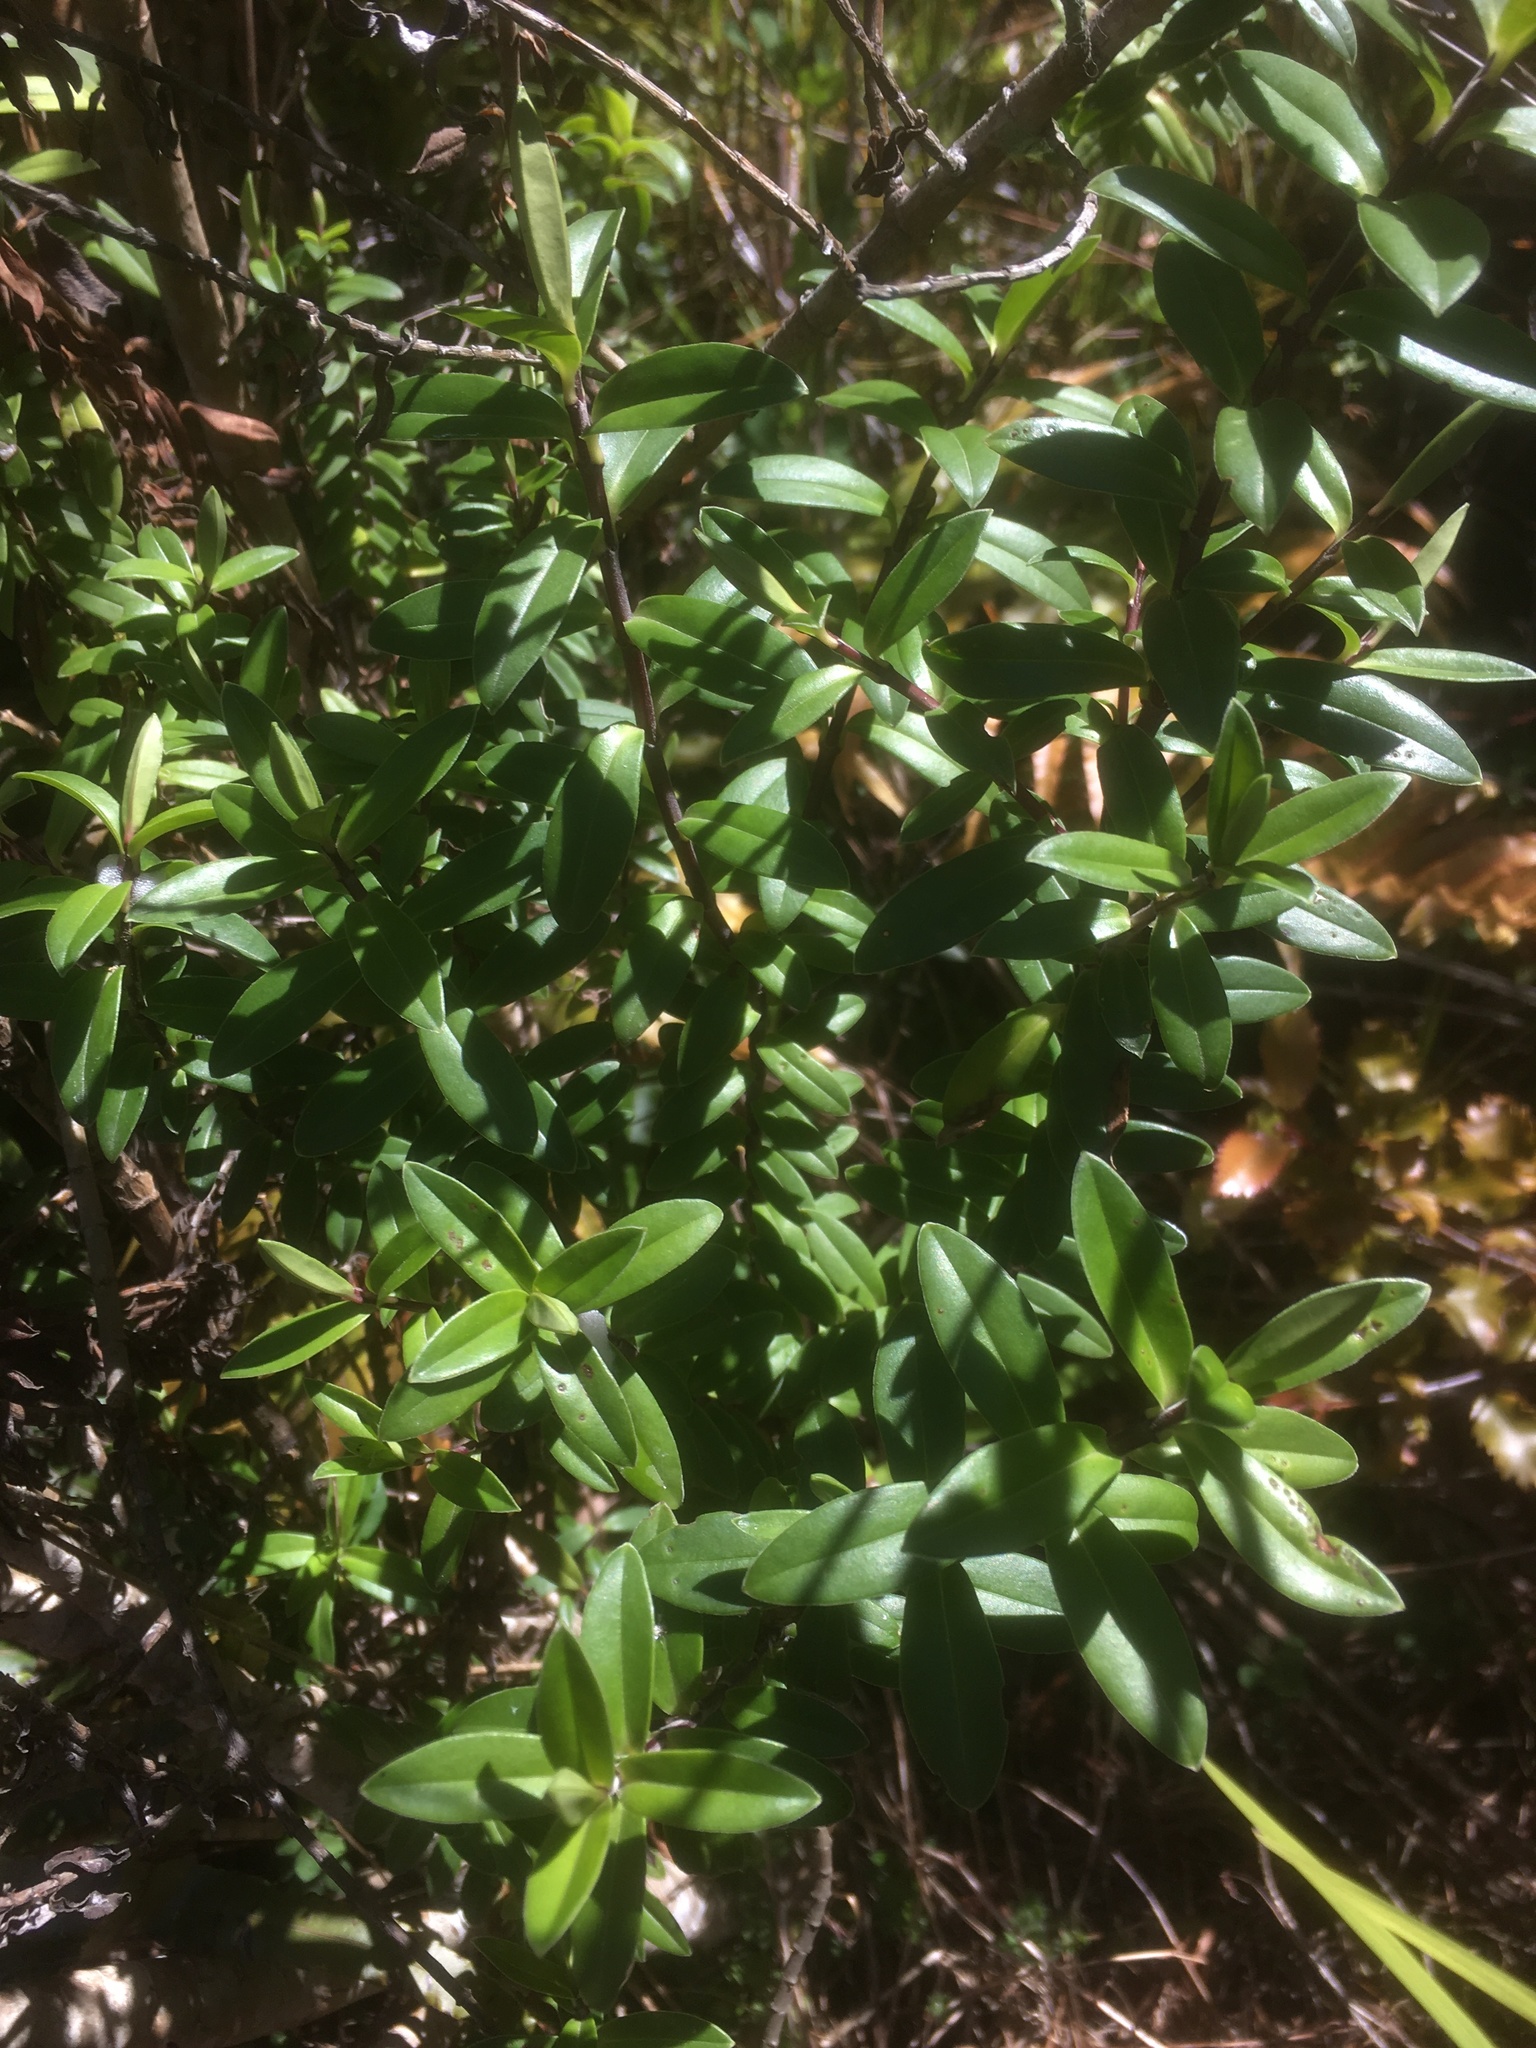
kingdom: Plantae
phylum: Tracheophyta
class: Magnoliopsida
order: Lamiales
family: Plantaginaceae
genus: Veronica
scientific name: Veronica elliptica
